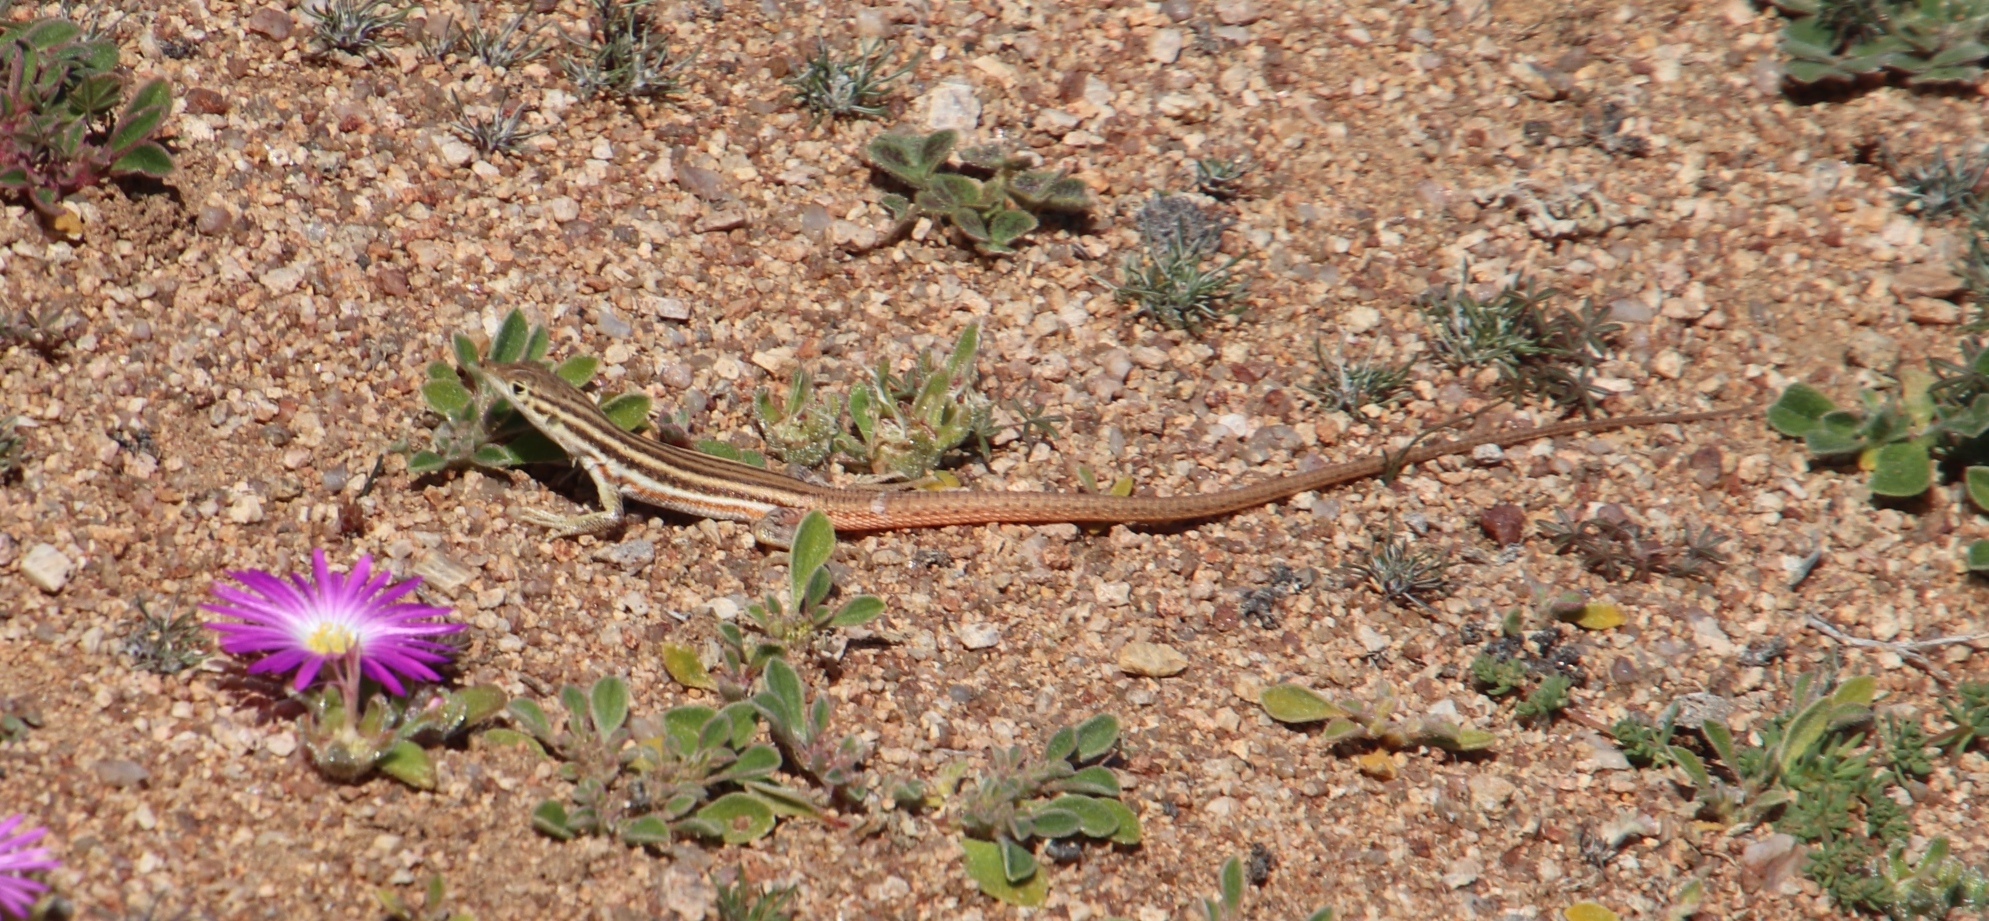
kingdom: Animalia
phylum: Chordata
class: Squamata
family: Lacertidae
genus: Pedioplanis
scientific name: Pedioplanis namaquensis
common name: Namaqua sand lizard
